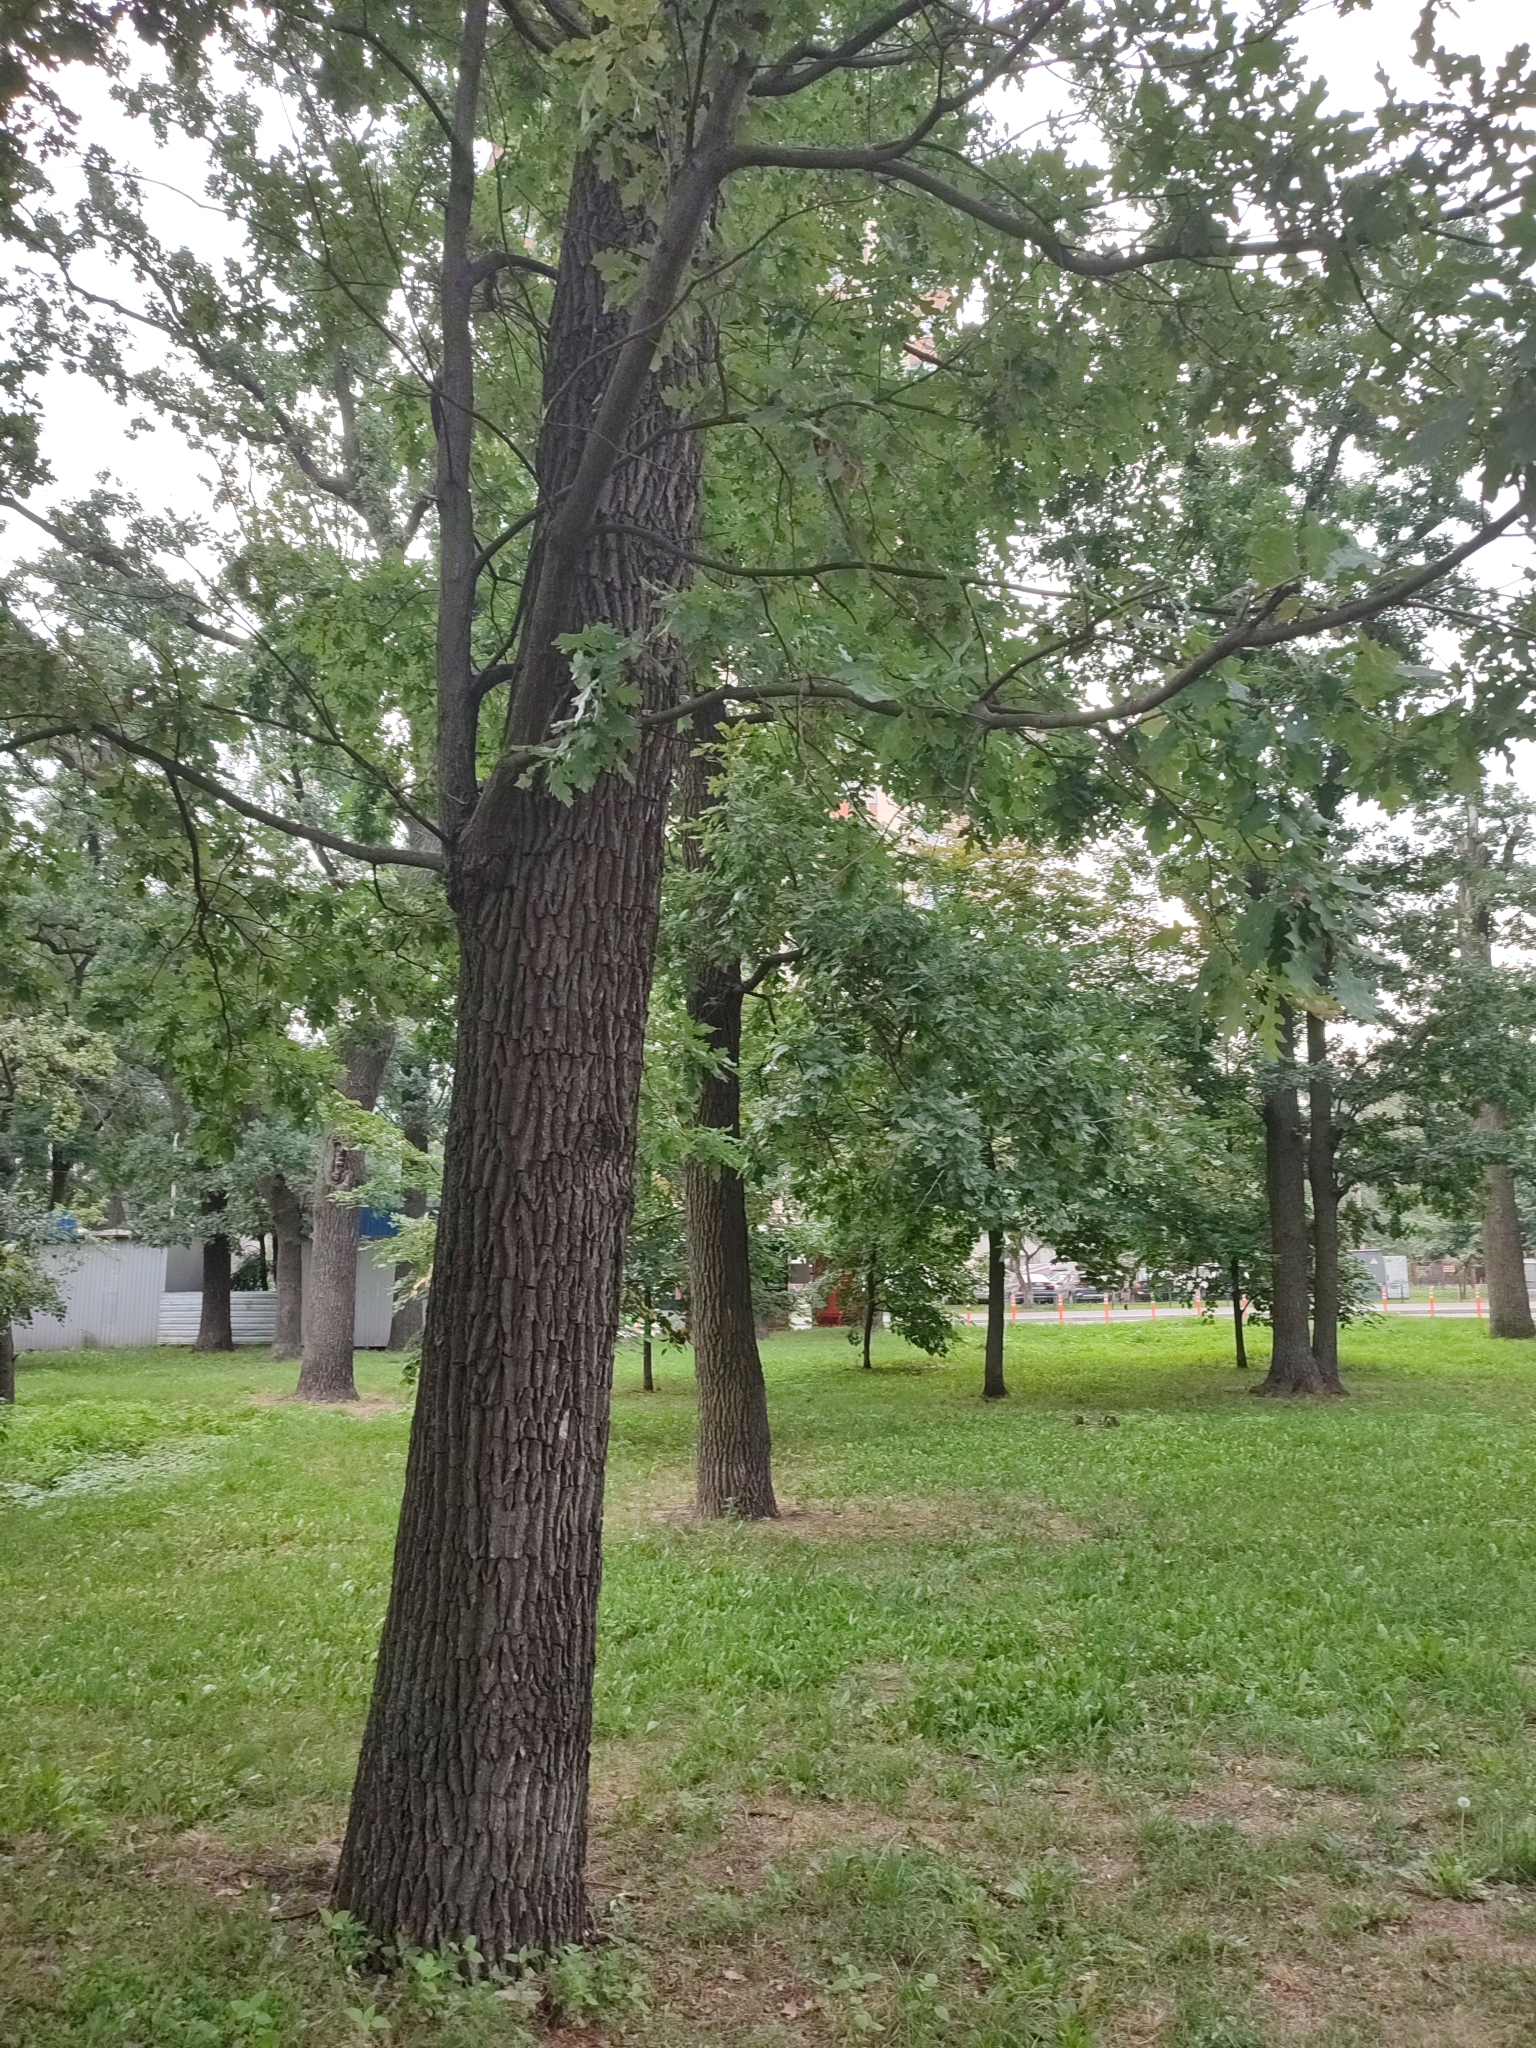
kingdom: Plantae
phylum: Tracheophyta
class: Magnoliopsida
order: Fagales
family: Fagaceae
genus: Quercus
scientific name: Quercus robur
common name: Pedunculate oak
